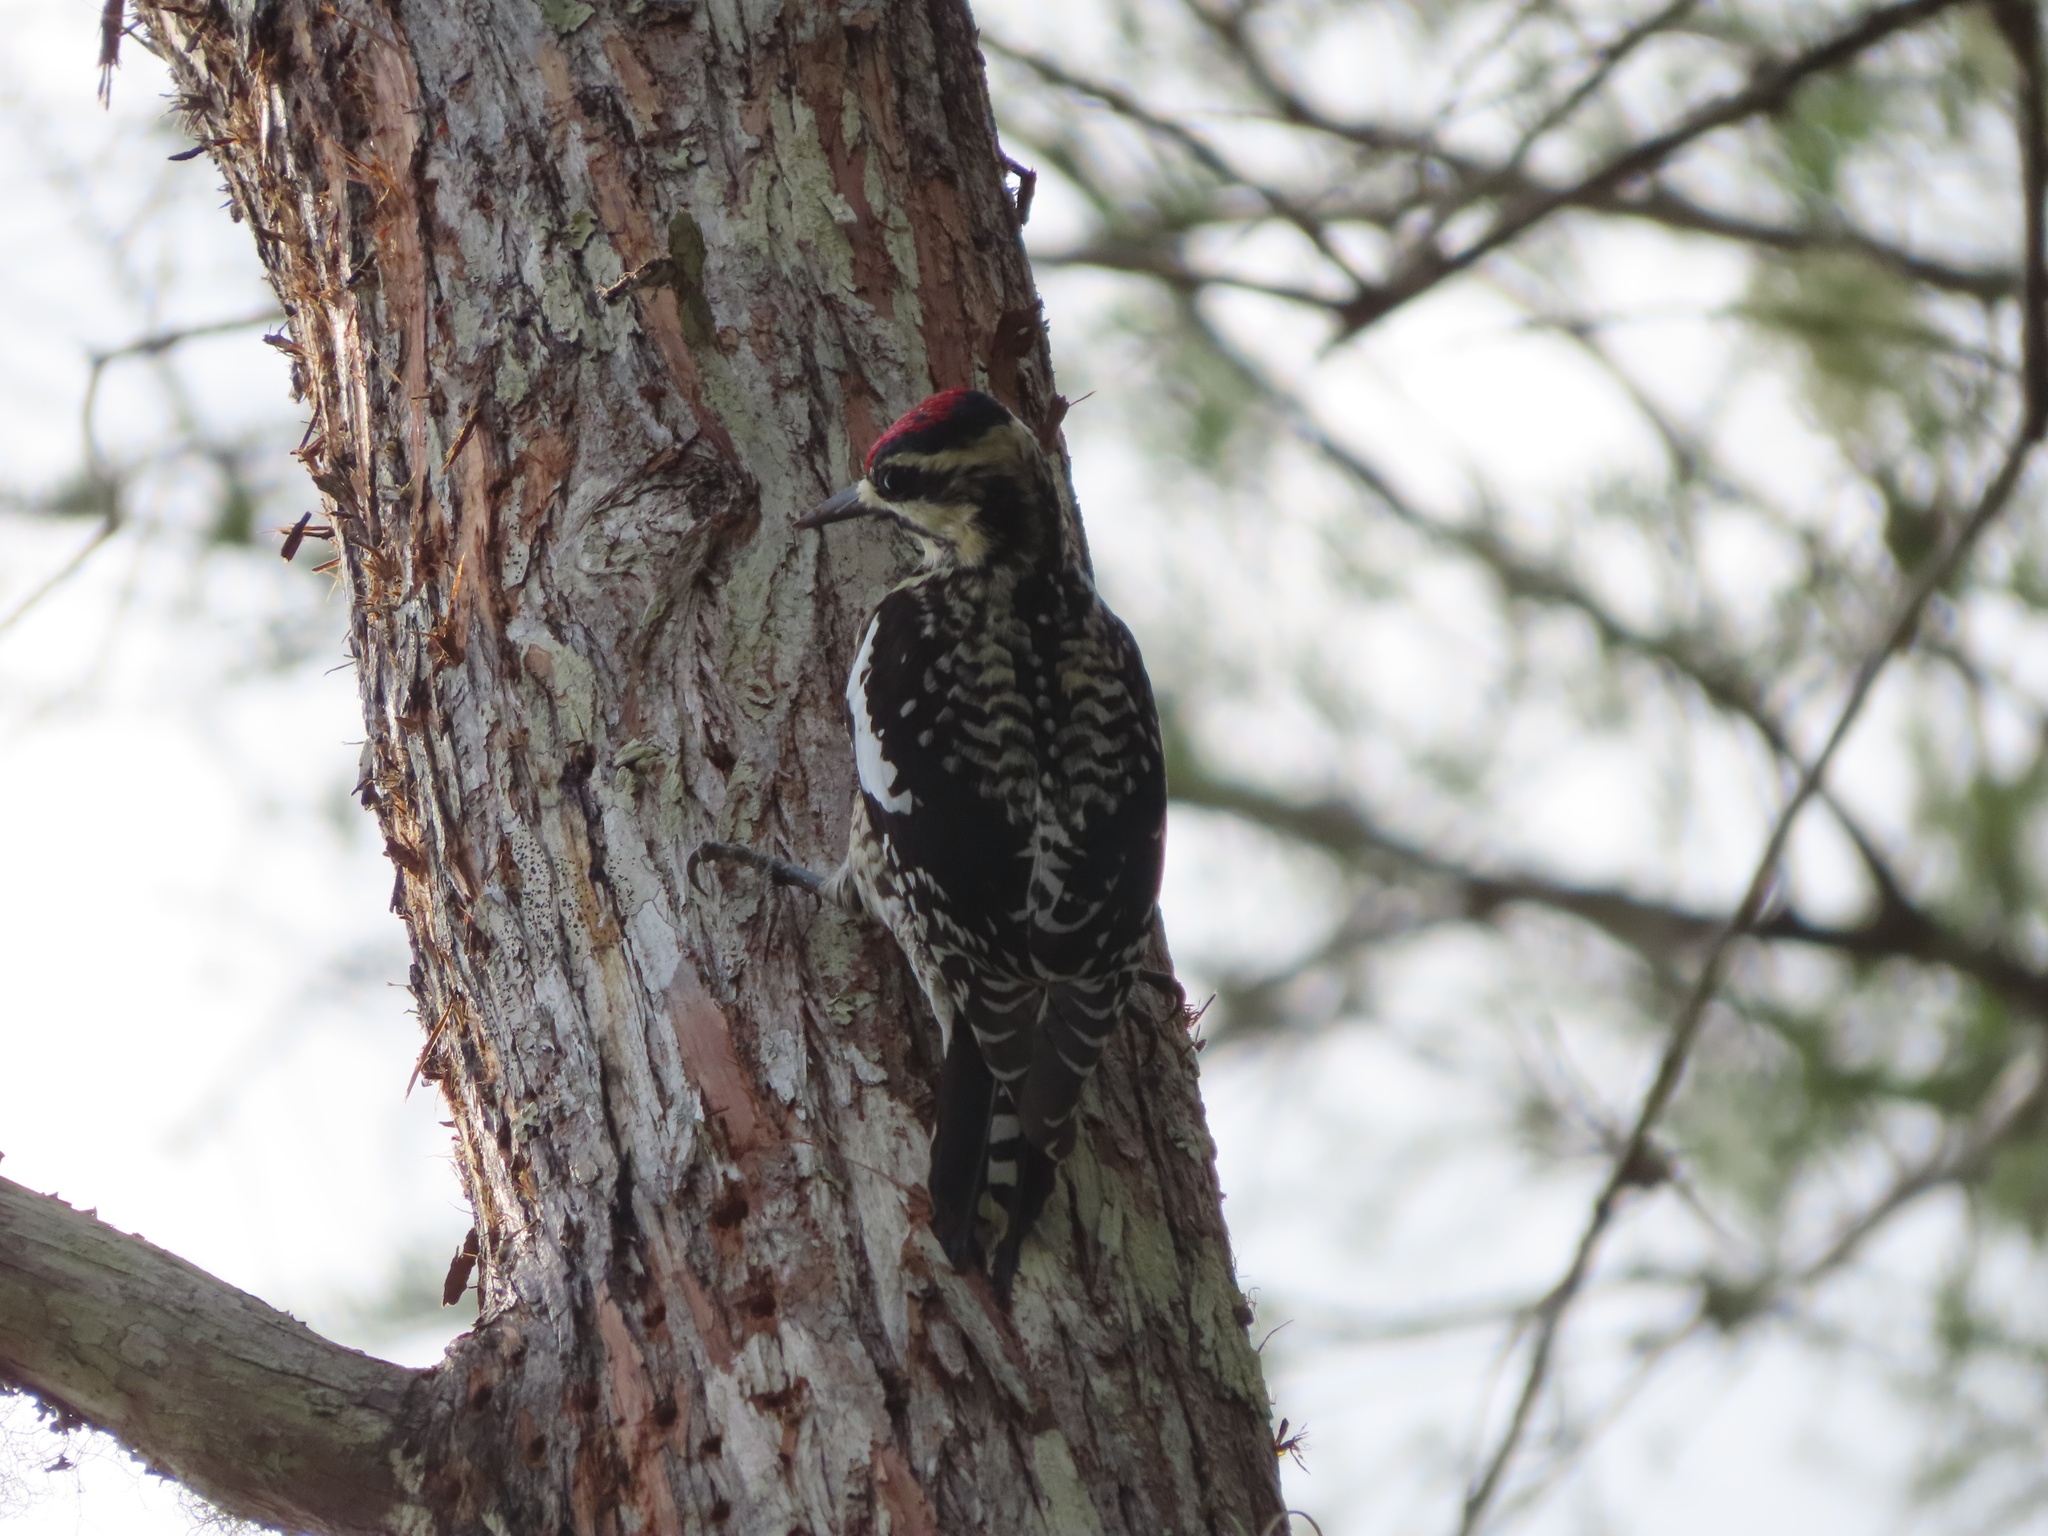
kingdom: Animalia
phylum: Chordata
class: Aves
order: Piciformes
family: Picidae
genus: Sphyrapicus
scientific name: Sphyrapicus varius
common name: Yellow-bellied sapsucker
